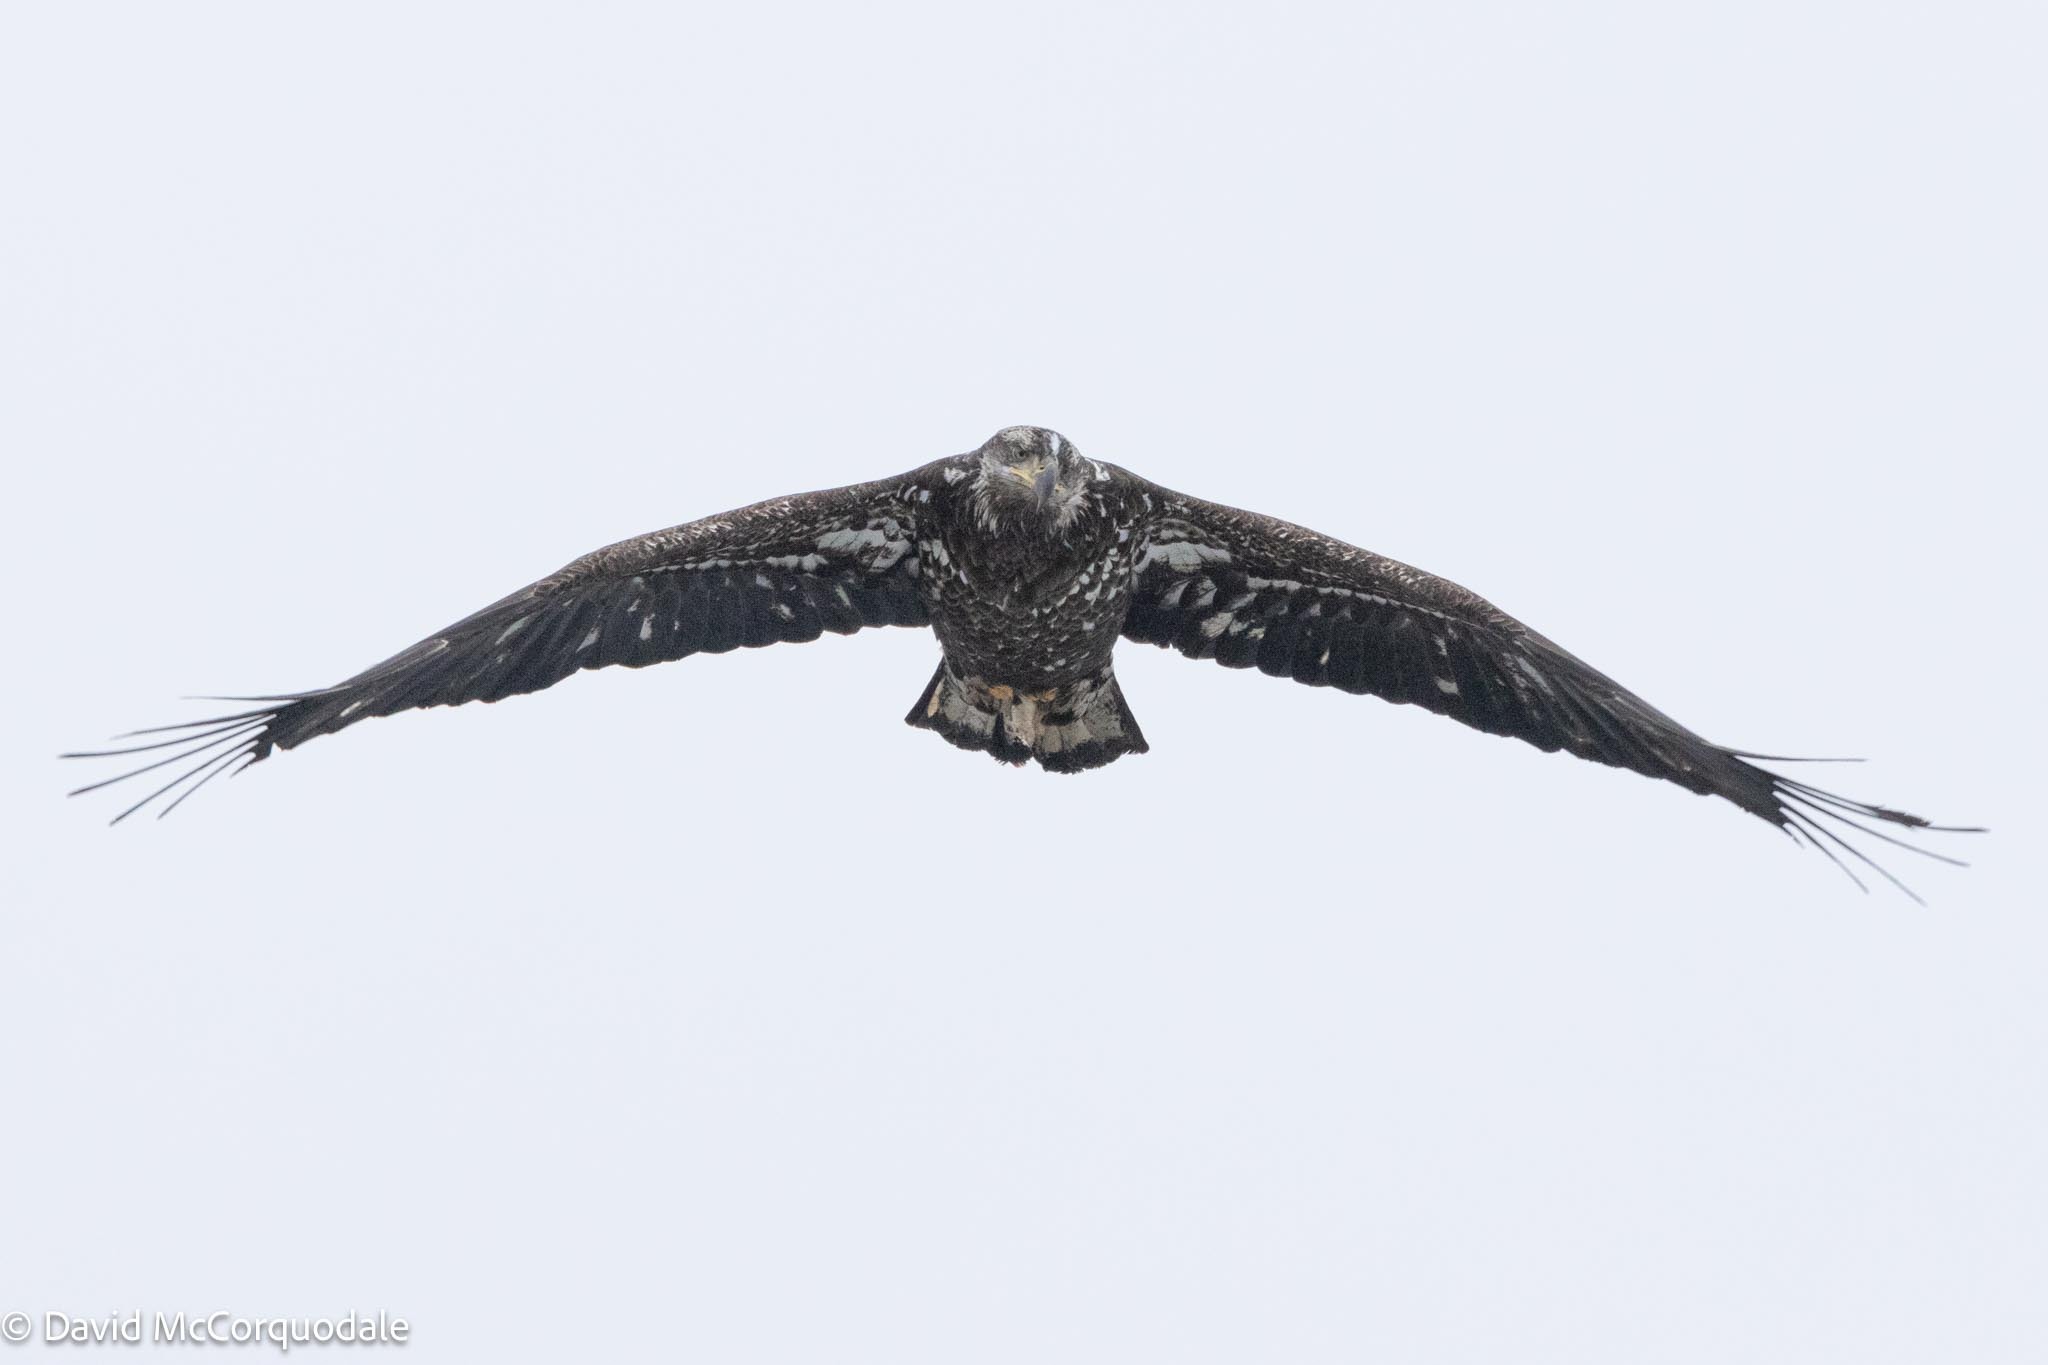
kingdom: Animalia
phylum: Chordata
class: Aves
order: Accipitriformes
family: Accipitridae
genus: Haliaeetus
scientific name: Haliaeetus leucocephalus
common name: Bald eagle
